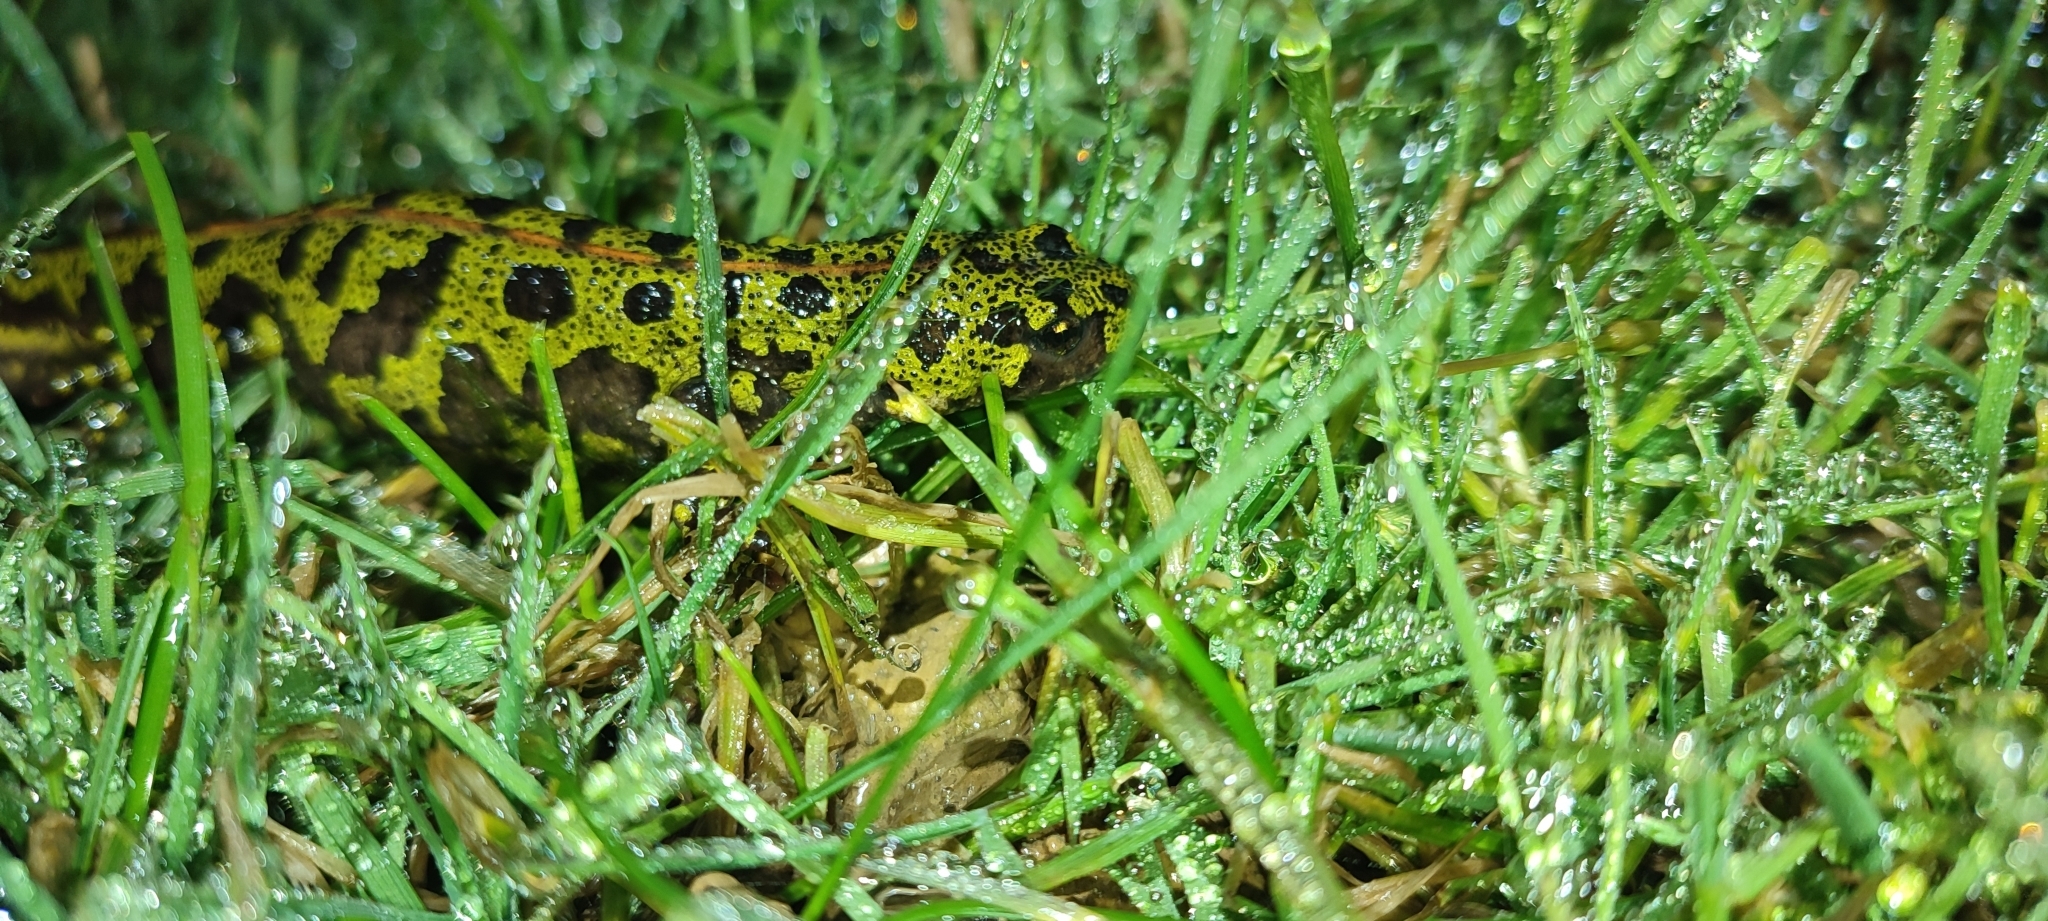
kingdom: Animalia
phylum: Chordata
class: Amphibia
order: Caudata
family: Salamandridae
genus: Triturus
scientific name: Triturus marmoratus
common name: Marbled newt
